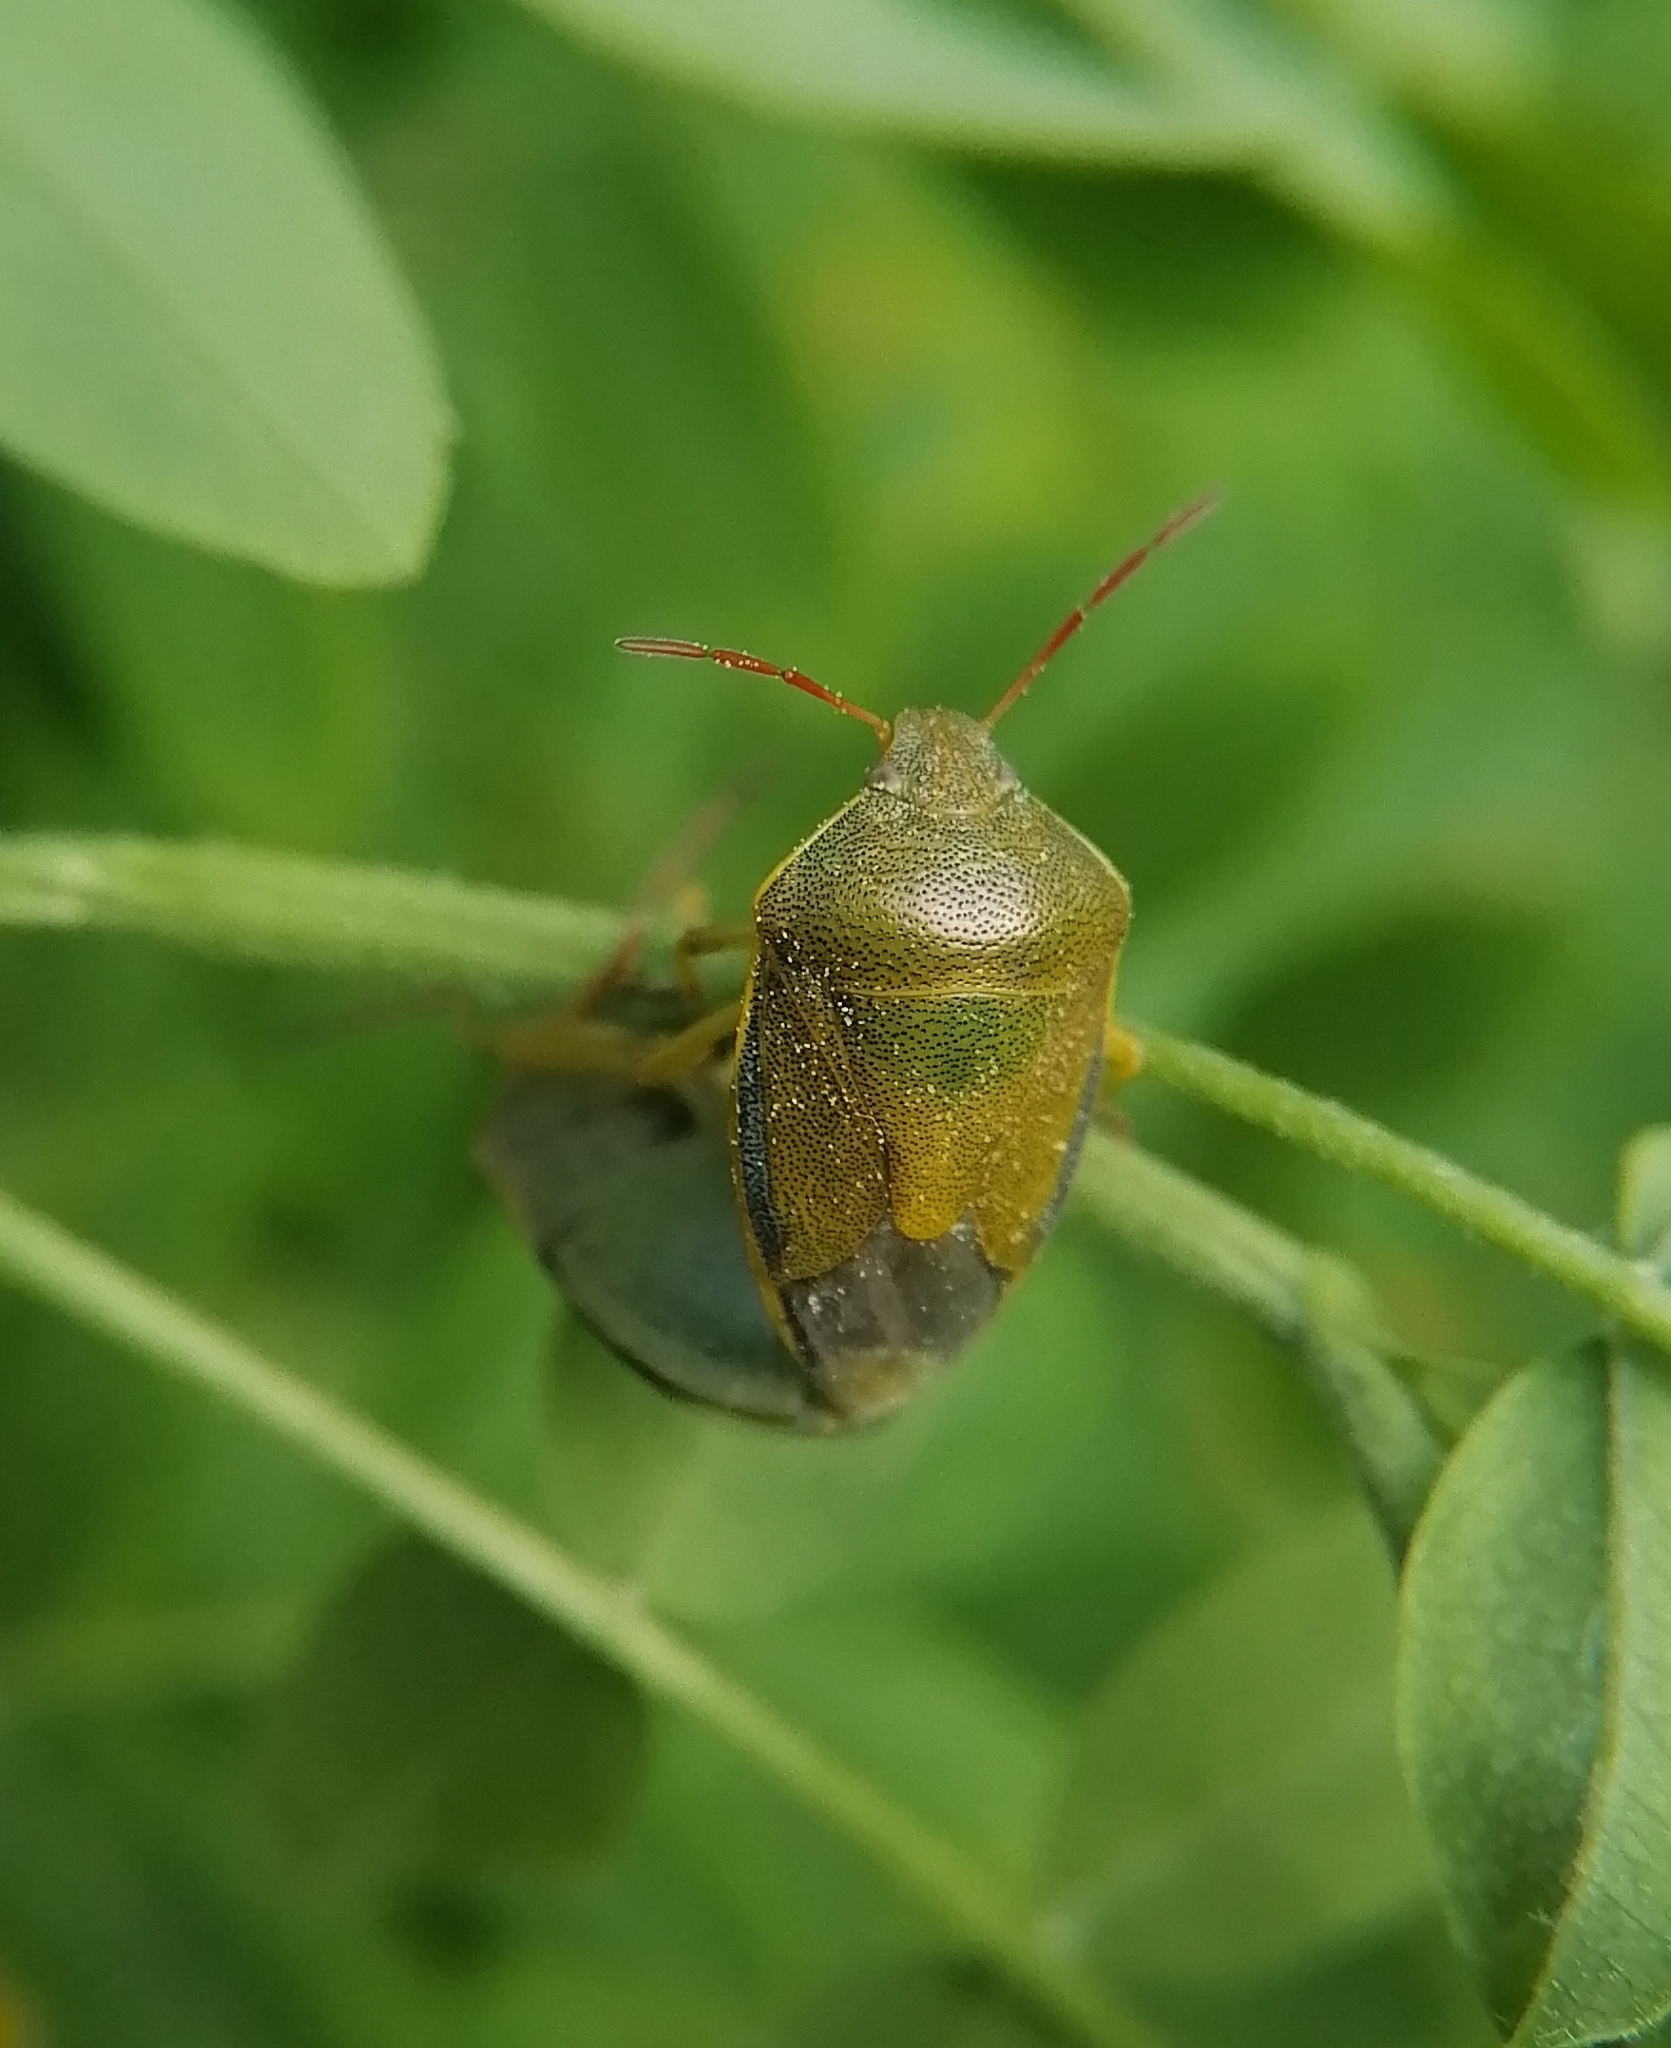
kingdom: Animalia
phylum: Arthropoda
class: Insecta
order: Hemiptera
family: Pentatomidae
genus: Piezodorus
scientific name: Piezodorus lituratus
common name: Stink bug
